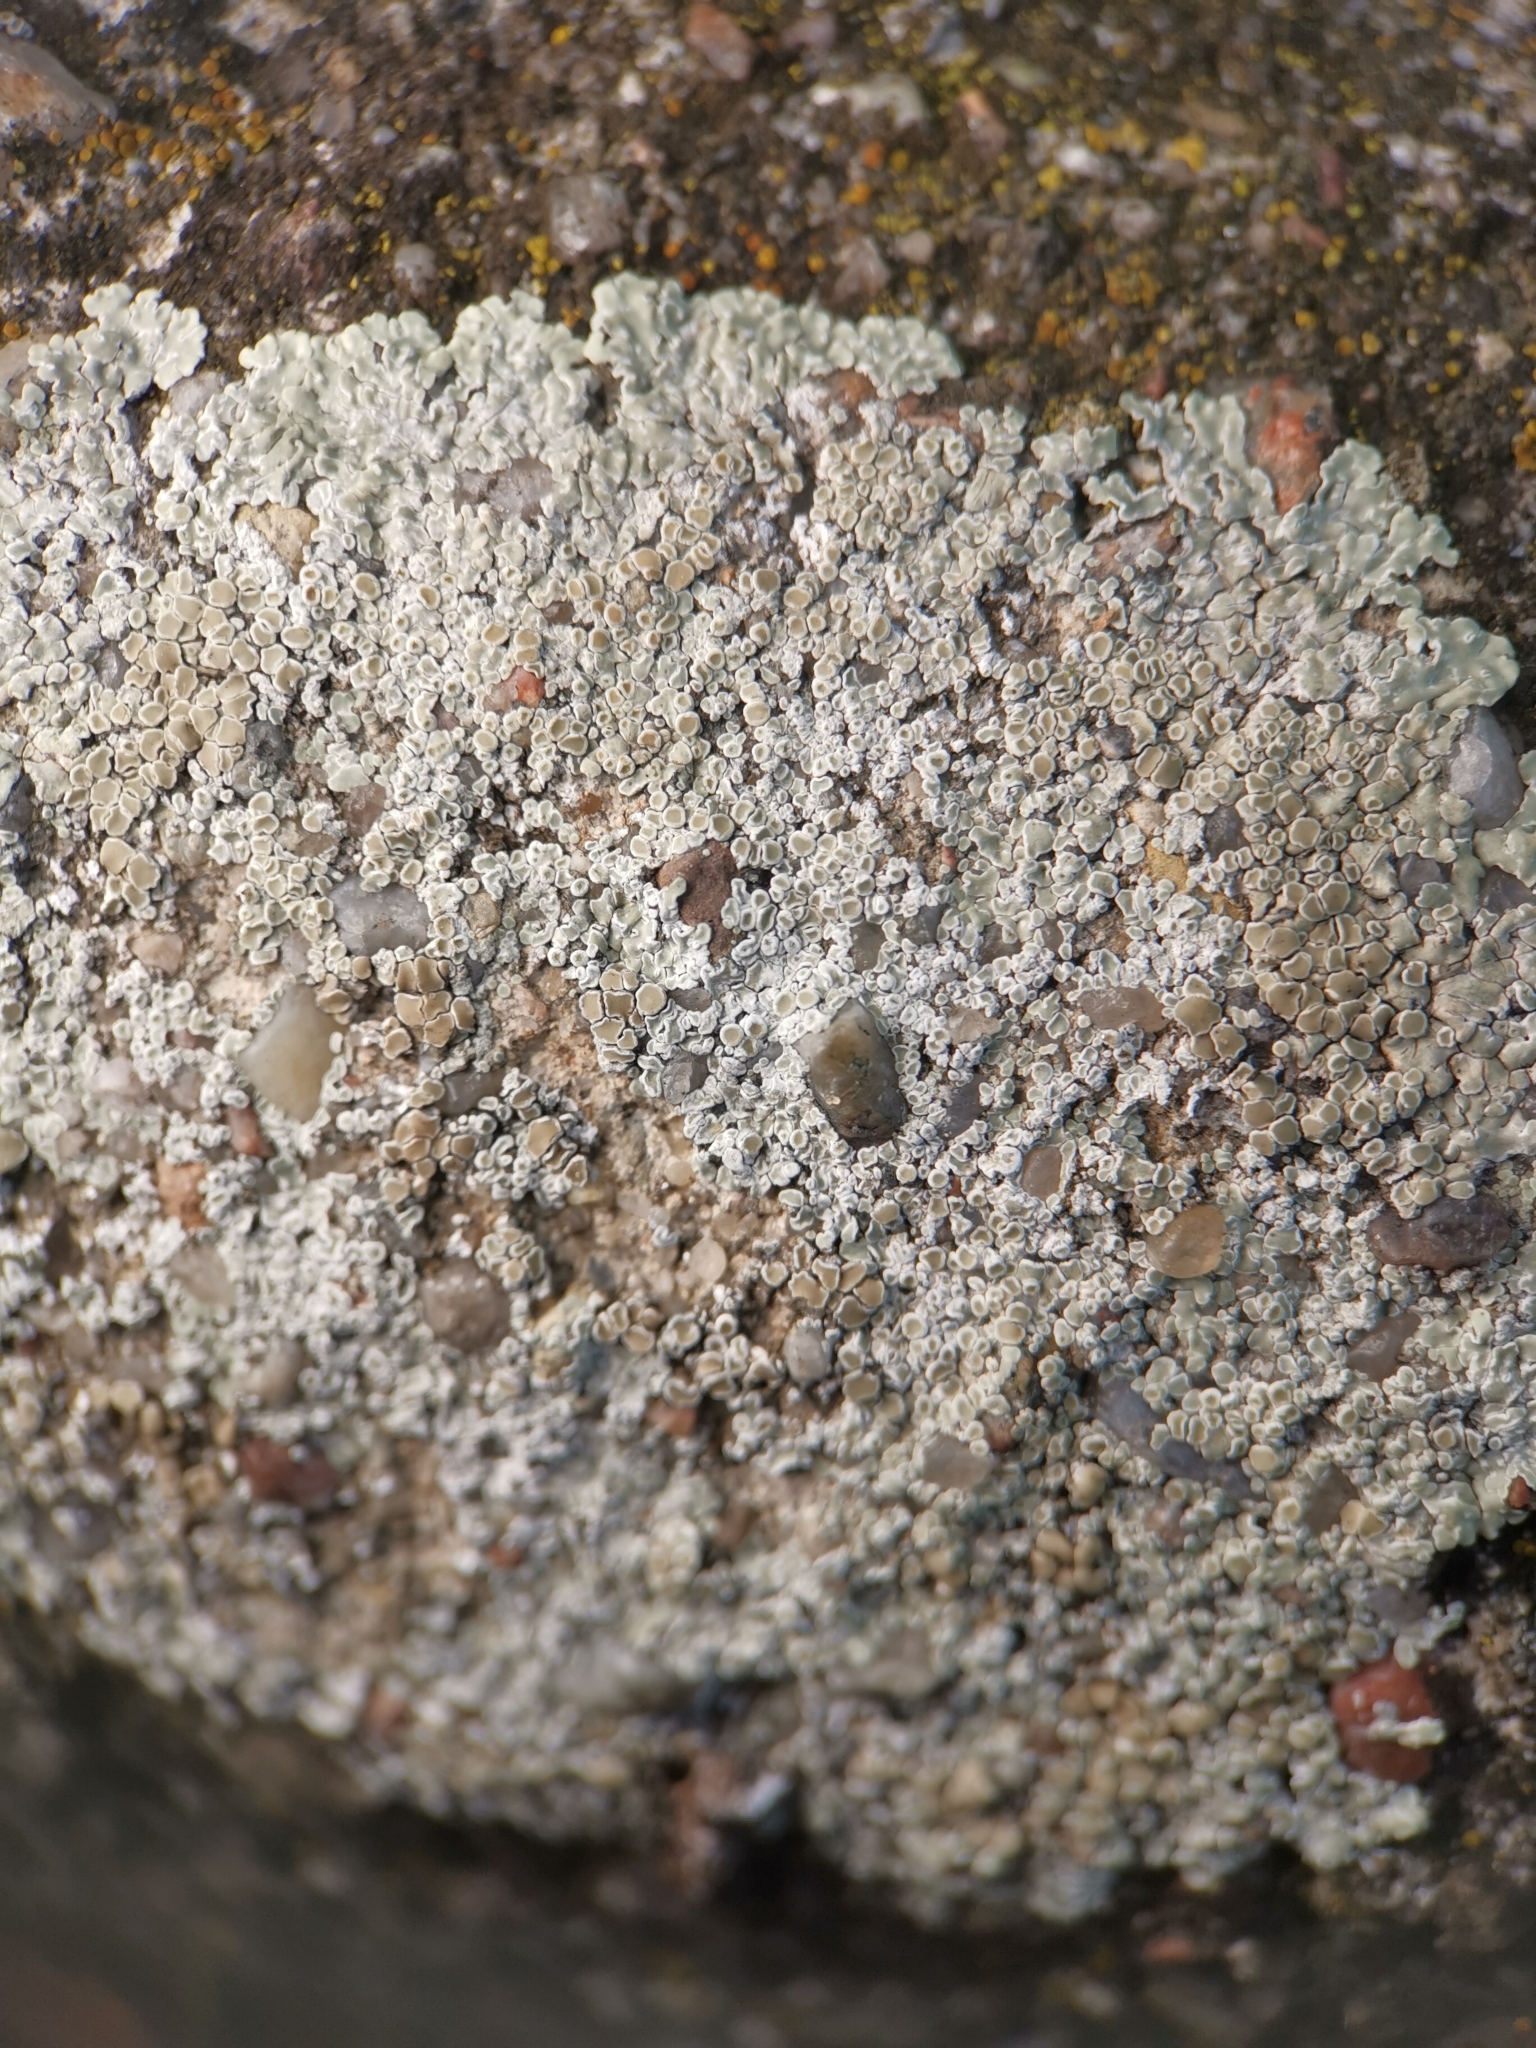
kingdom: Fungi
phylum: Ascomycota
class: Lecanoromycetes
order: Lecanorales
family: Lecanoraceae
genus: Protoparmeliopsis
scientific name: Protoparmeliopsis muralis
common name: Stonewall rim lichen
